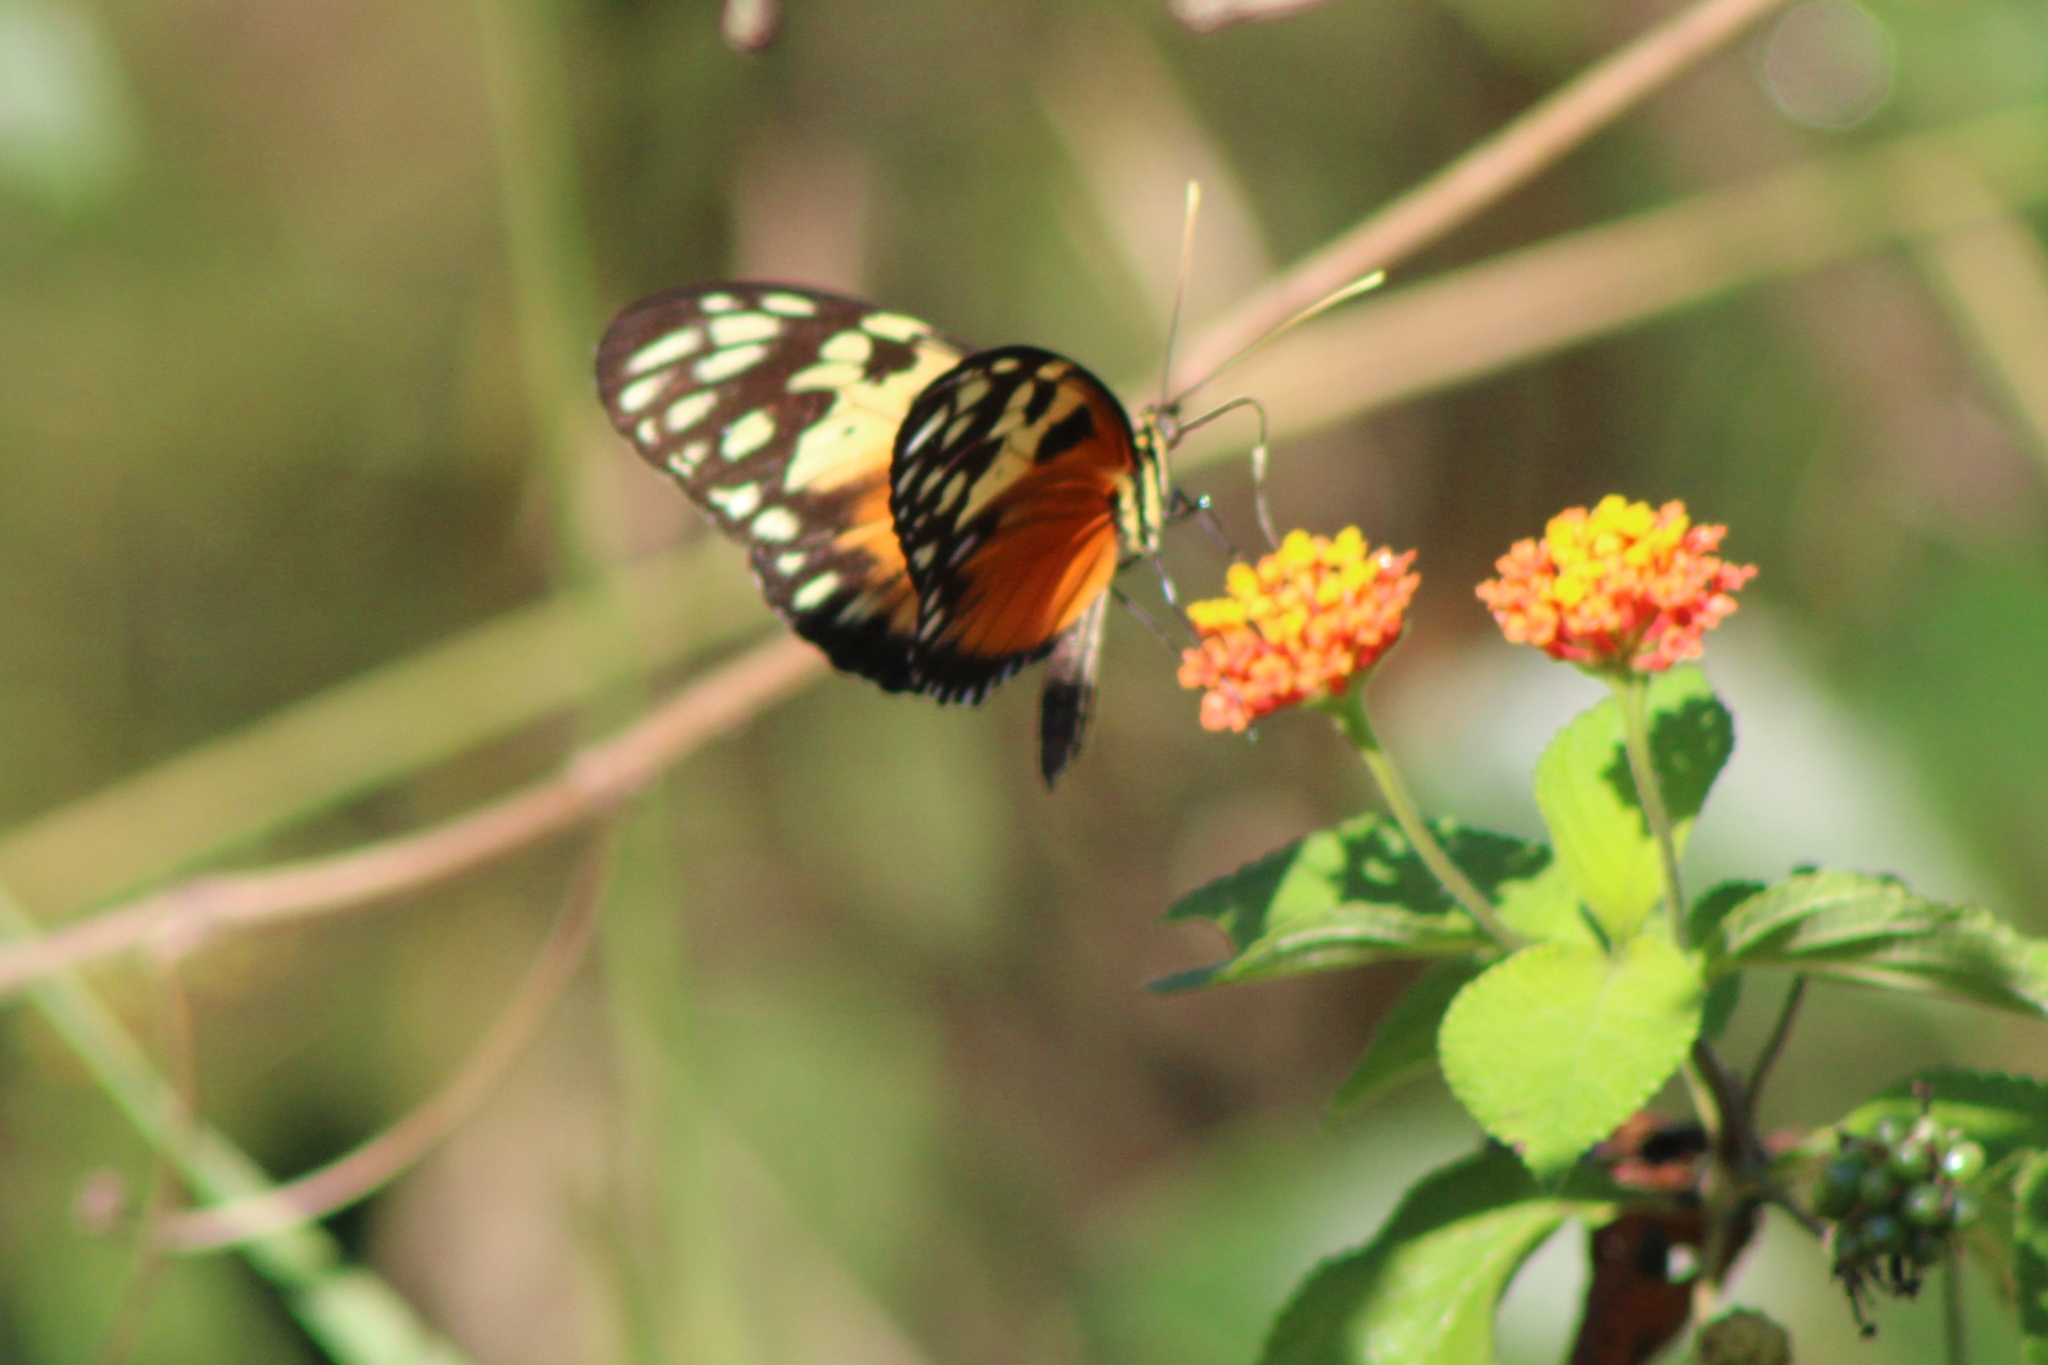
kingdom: Animalia
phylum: Arthropoda
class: Insecta
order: Lepidoptera
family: Nymphalidae
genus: Heliconius
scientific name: Heliconius hecale
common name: Tiger longwing
